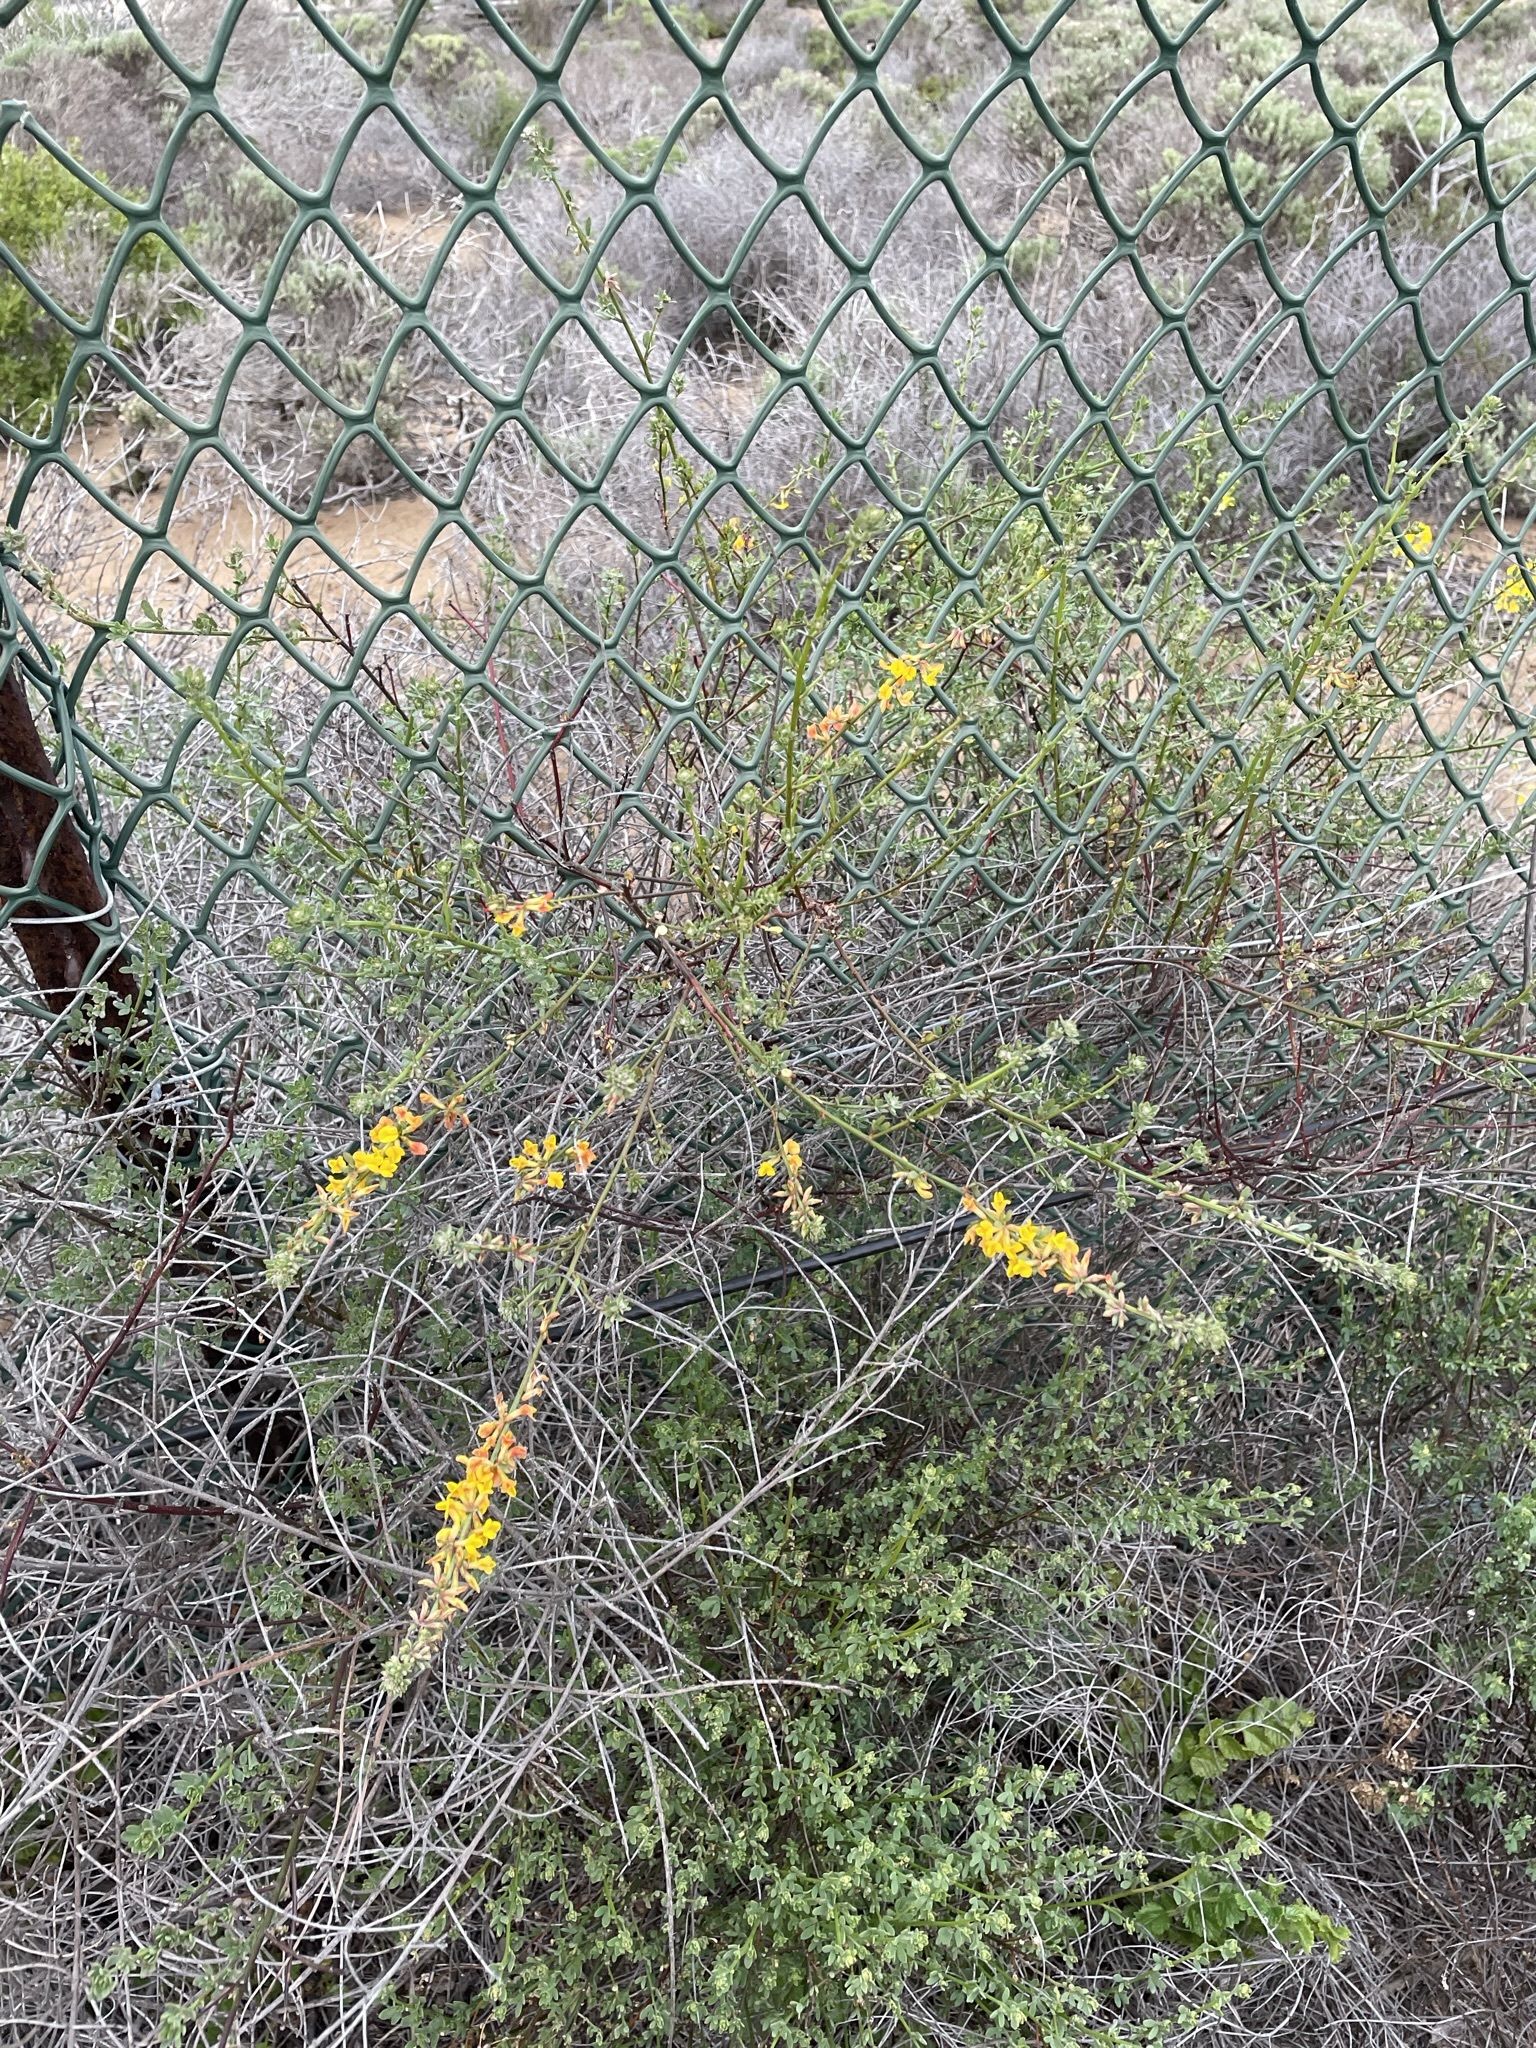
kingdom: Plantae
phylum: Tracheophyta
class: Magnoliopsida
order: Fabales
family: Fabaceae
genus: Acmispon
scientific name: Acmispon glaber
